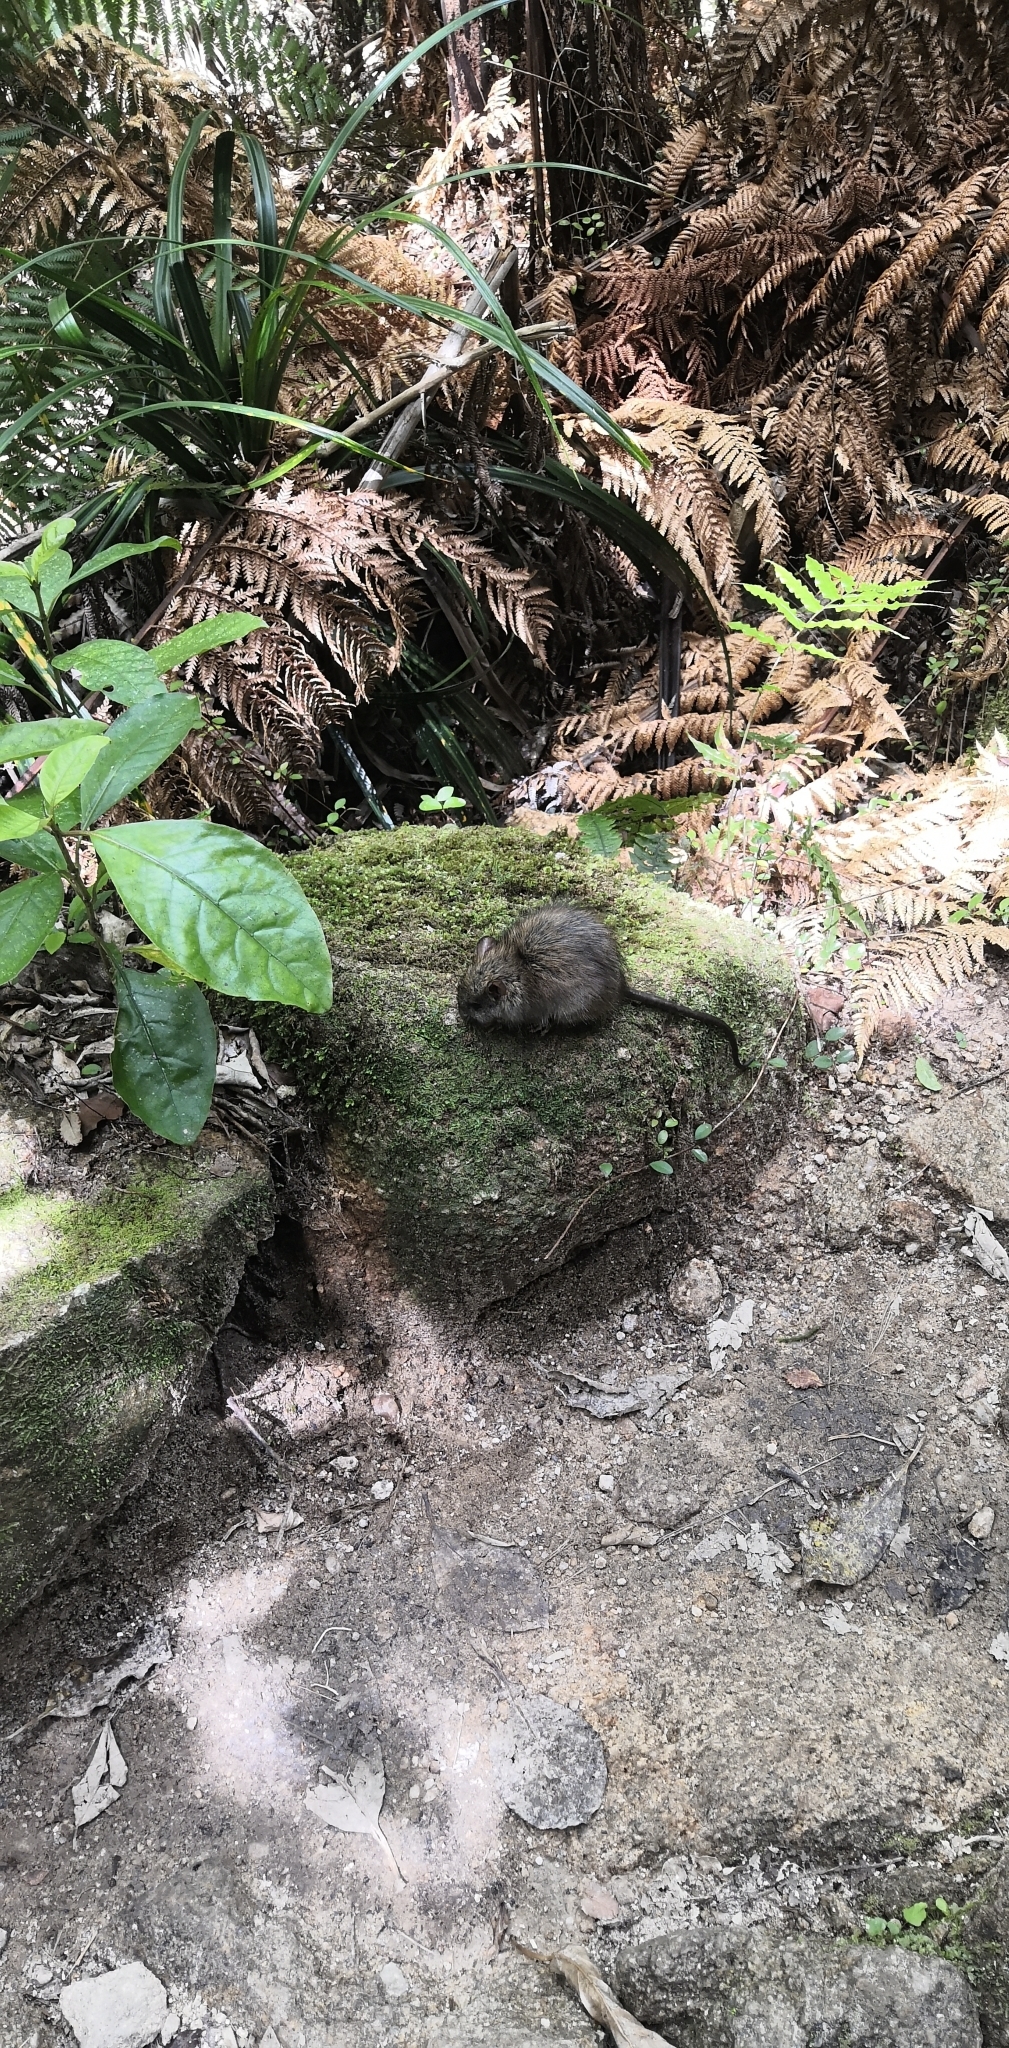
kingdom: Animalia
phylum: Chordata
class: Mammalia
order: Rodentia
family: Muridae
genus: Rattus
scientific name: Rattus rattus
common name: Black rat
